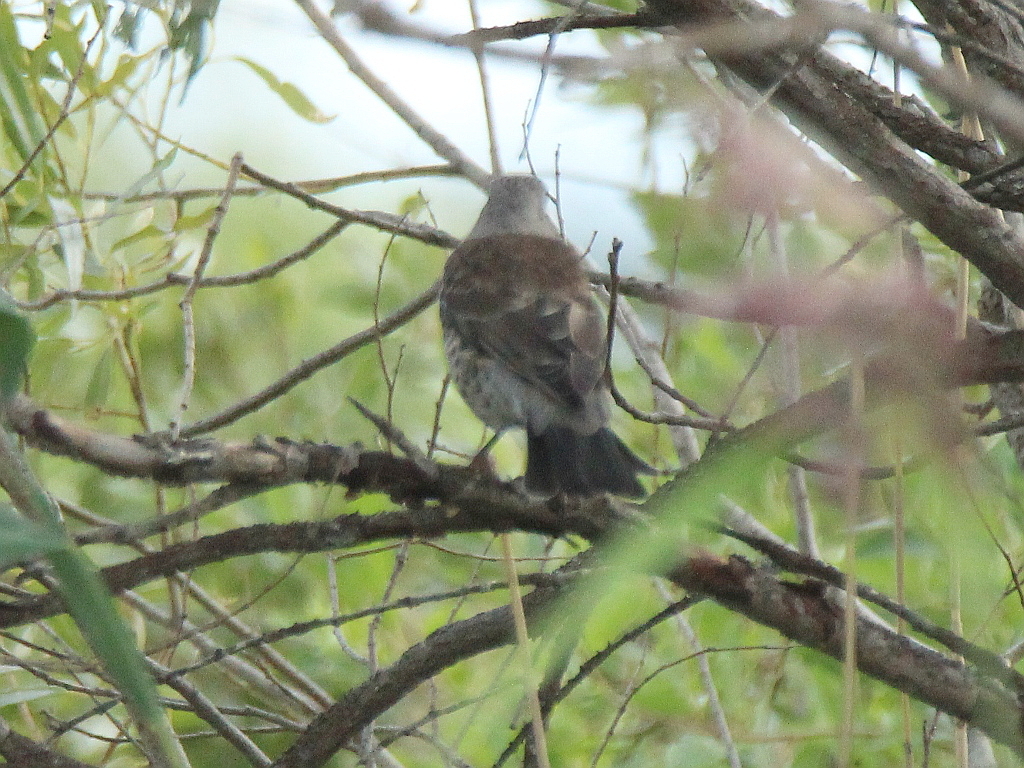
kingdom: Animalia
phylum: Chordata
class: Aves
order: Passeriformes
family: Turdidae
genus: Turdus
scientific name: Turdus pilaris
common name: Fieldfare
